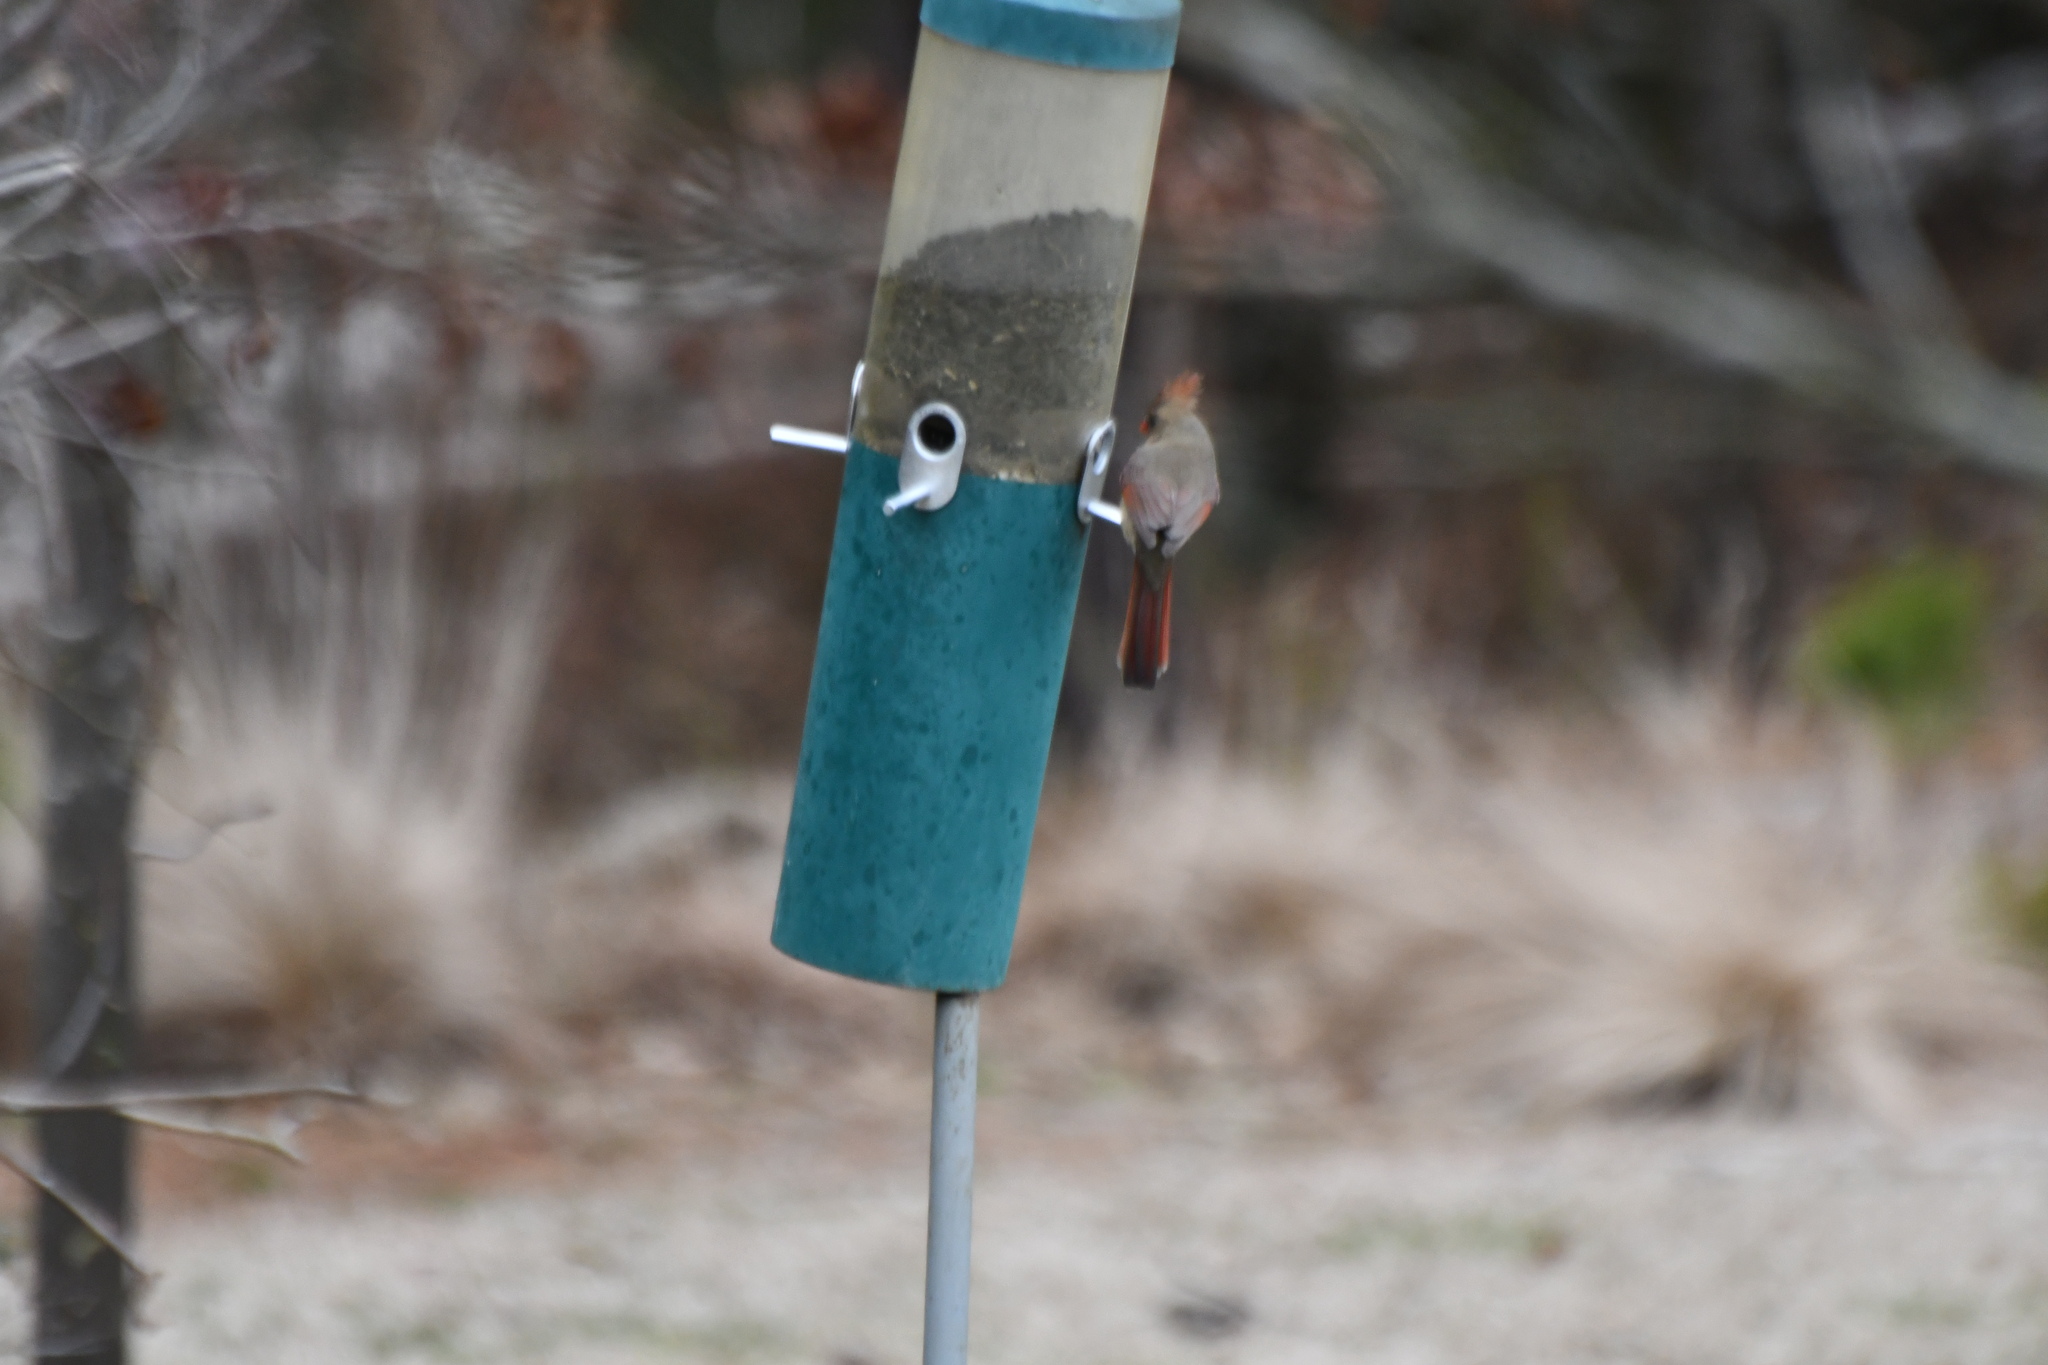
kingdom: Animalia
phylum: Chordata
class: Aves
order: Passeriformes
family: Cardinalidae
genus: Cardinalis
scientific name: Cardinalis cardinalis
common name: Northern cardinal
